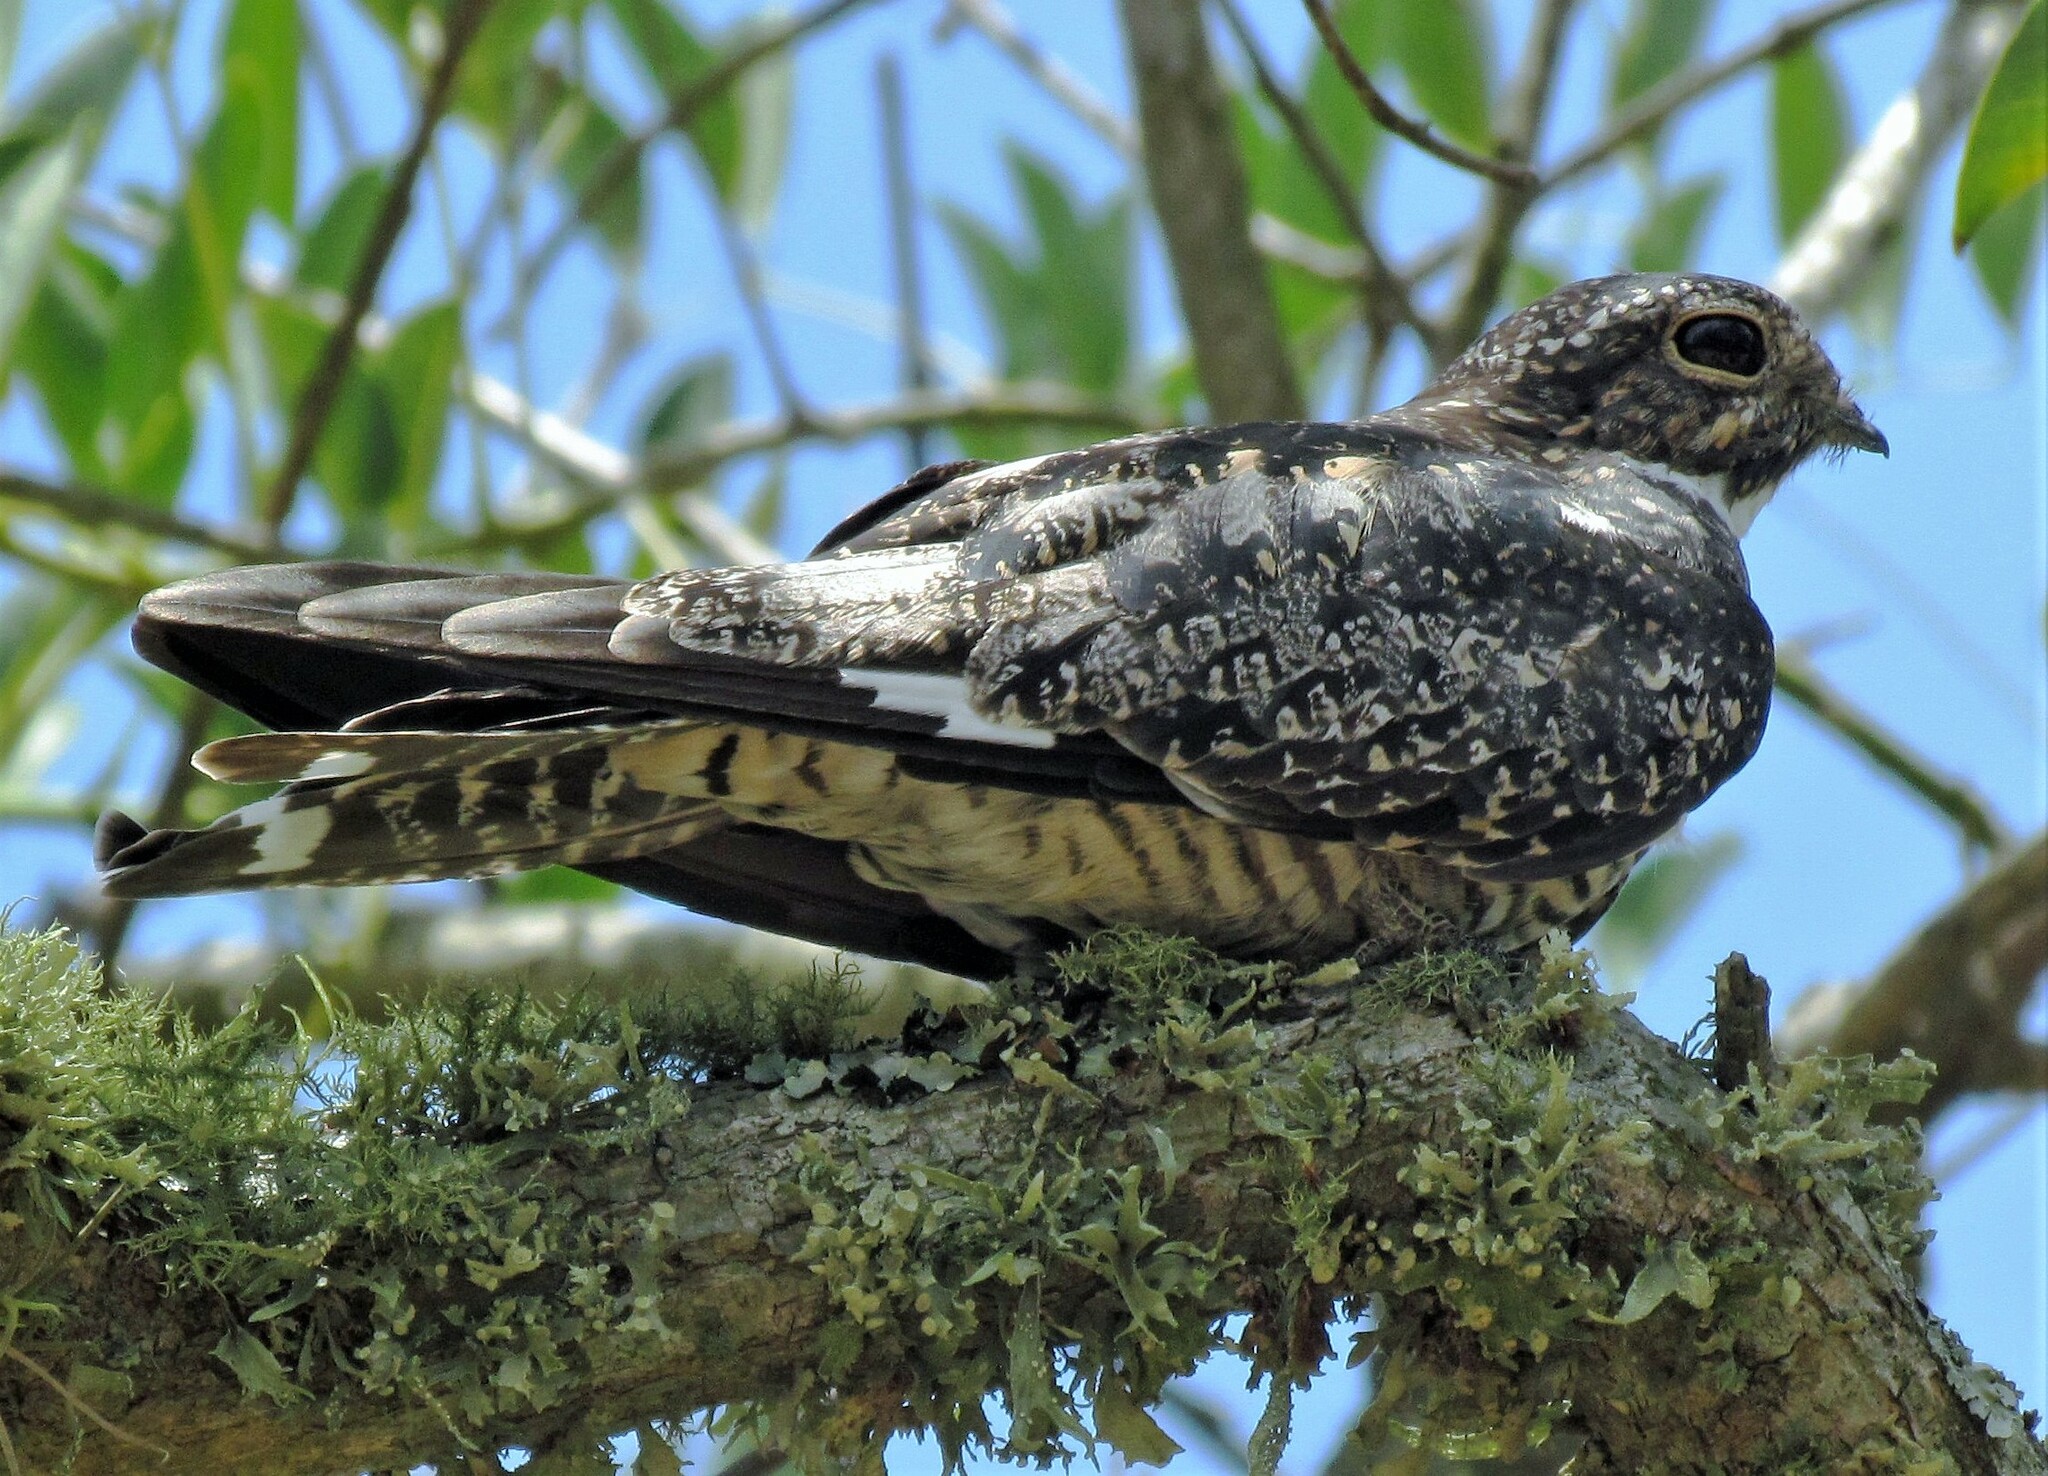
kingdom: Animalia
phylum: Chordata
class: Aves
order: Caprimulgiformes
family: Caprimulgidae
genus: Chordeiles
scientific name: Chordeiles minor
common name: Common nighthawk
